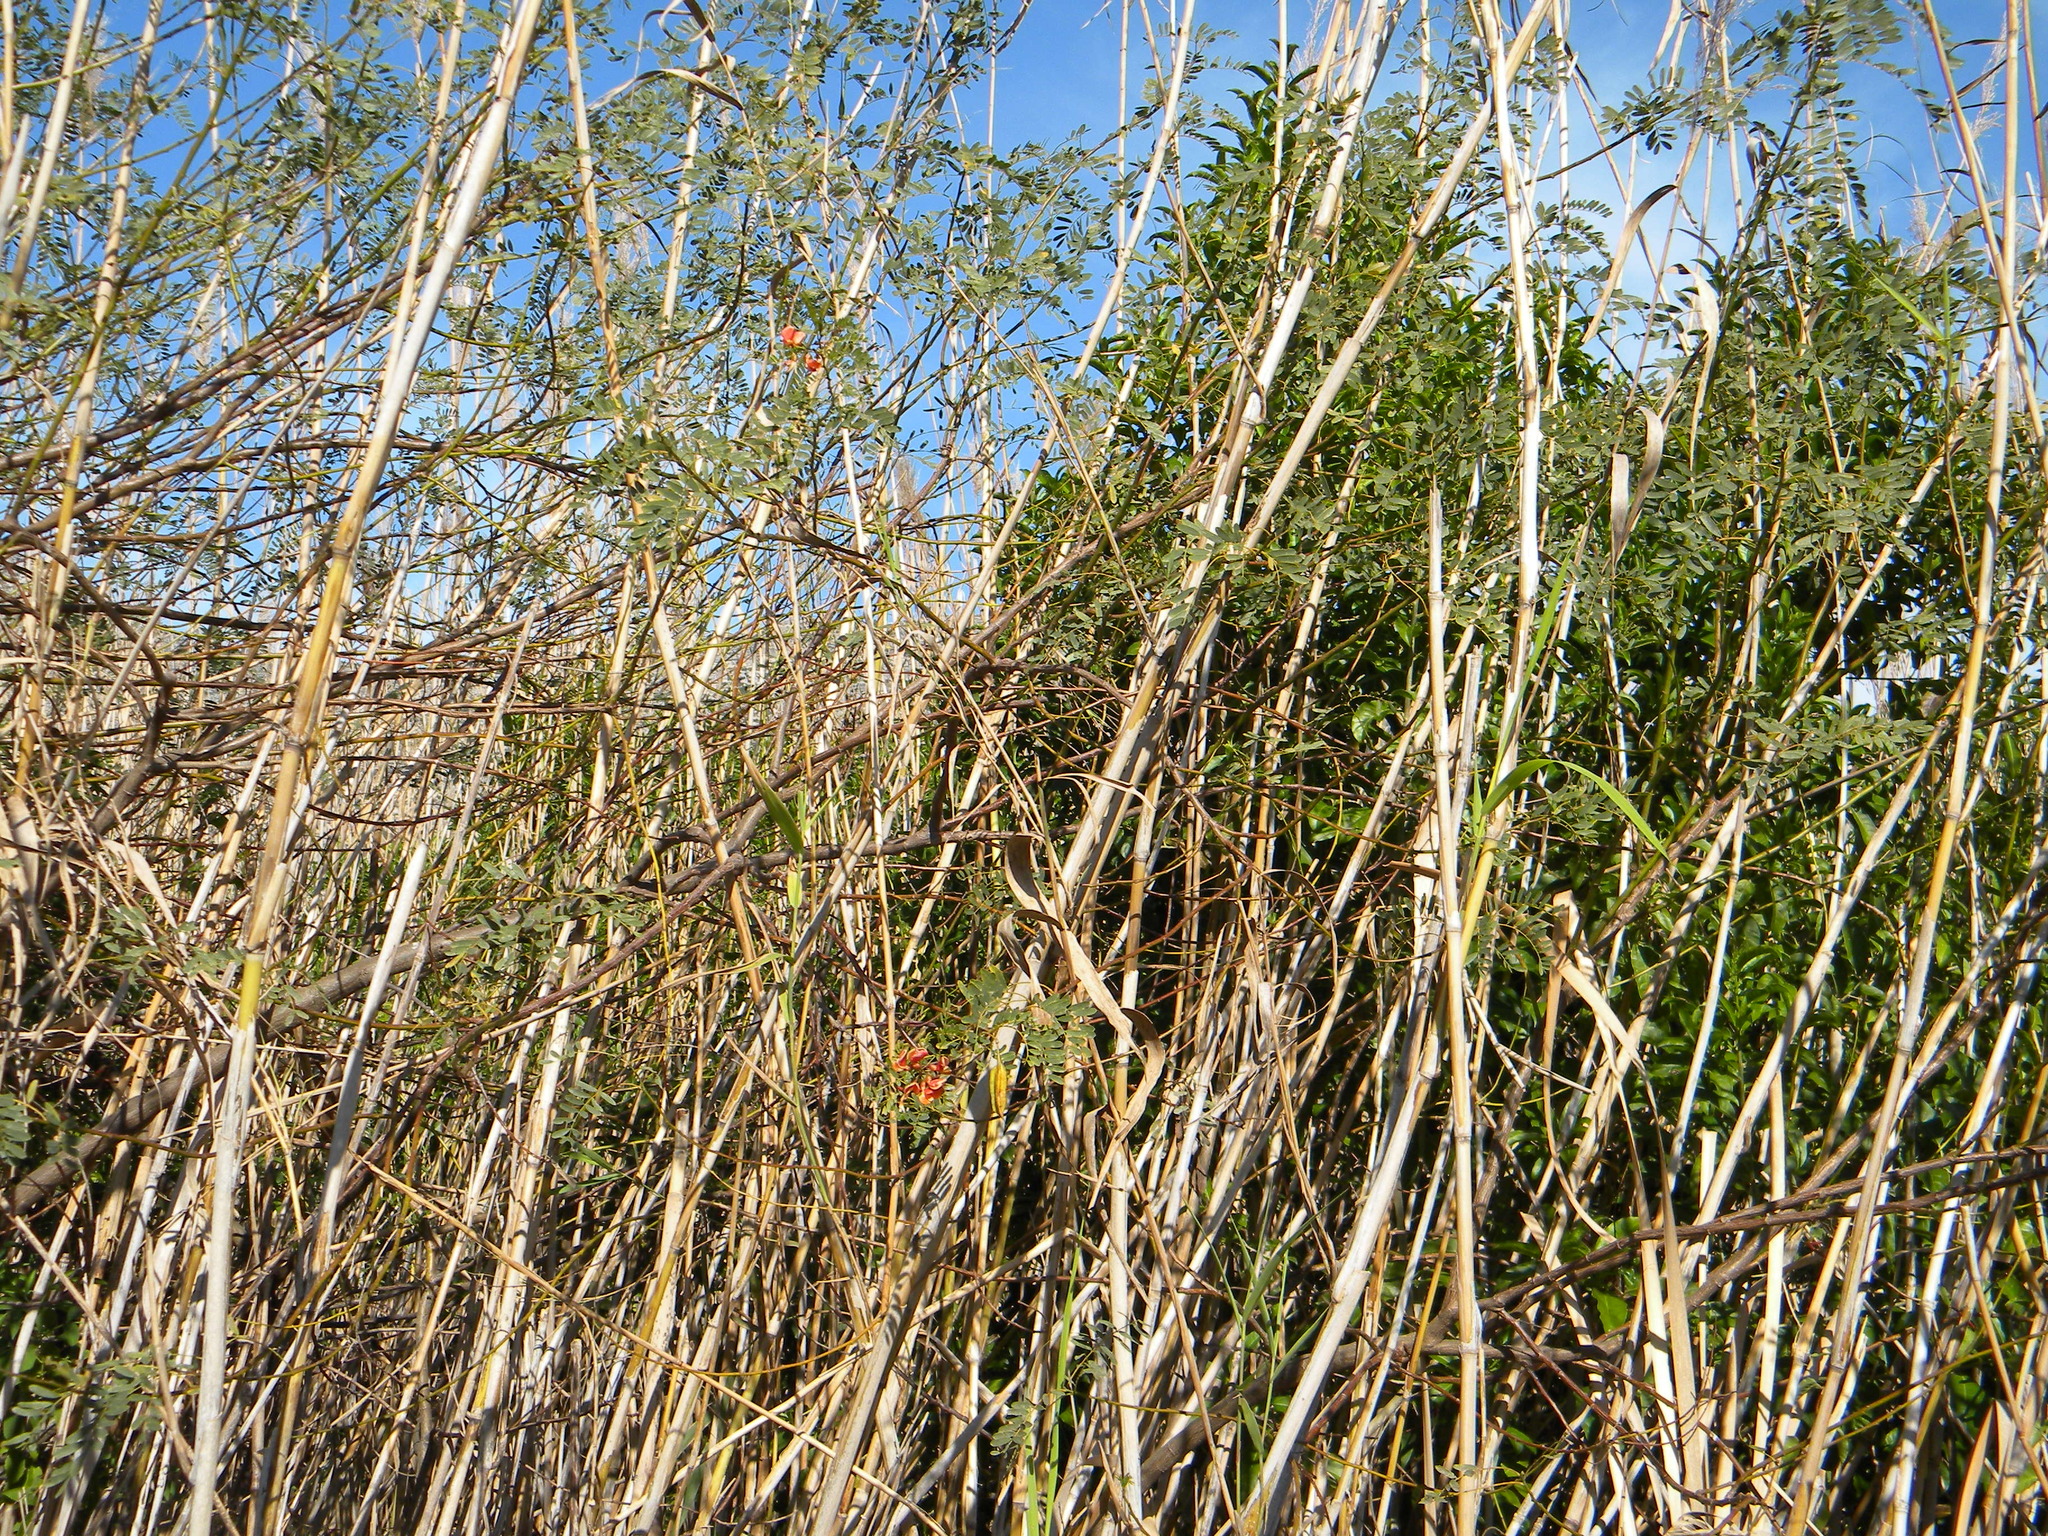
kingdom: Plantae
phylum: Tracheophyta
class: Magnoliopsida
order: Fabales
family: Fabaceae
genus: Sesbania
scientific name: Sesbania punicea
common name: Rattlebox
